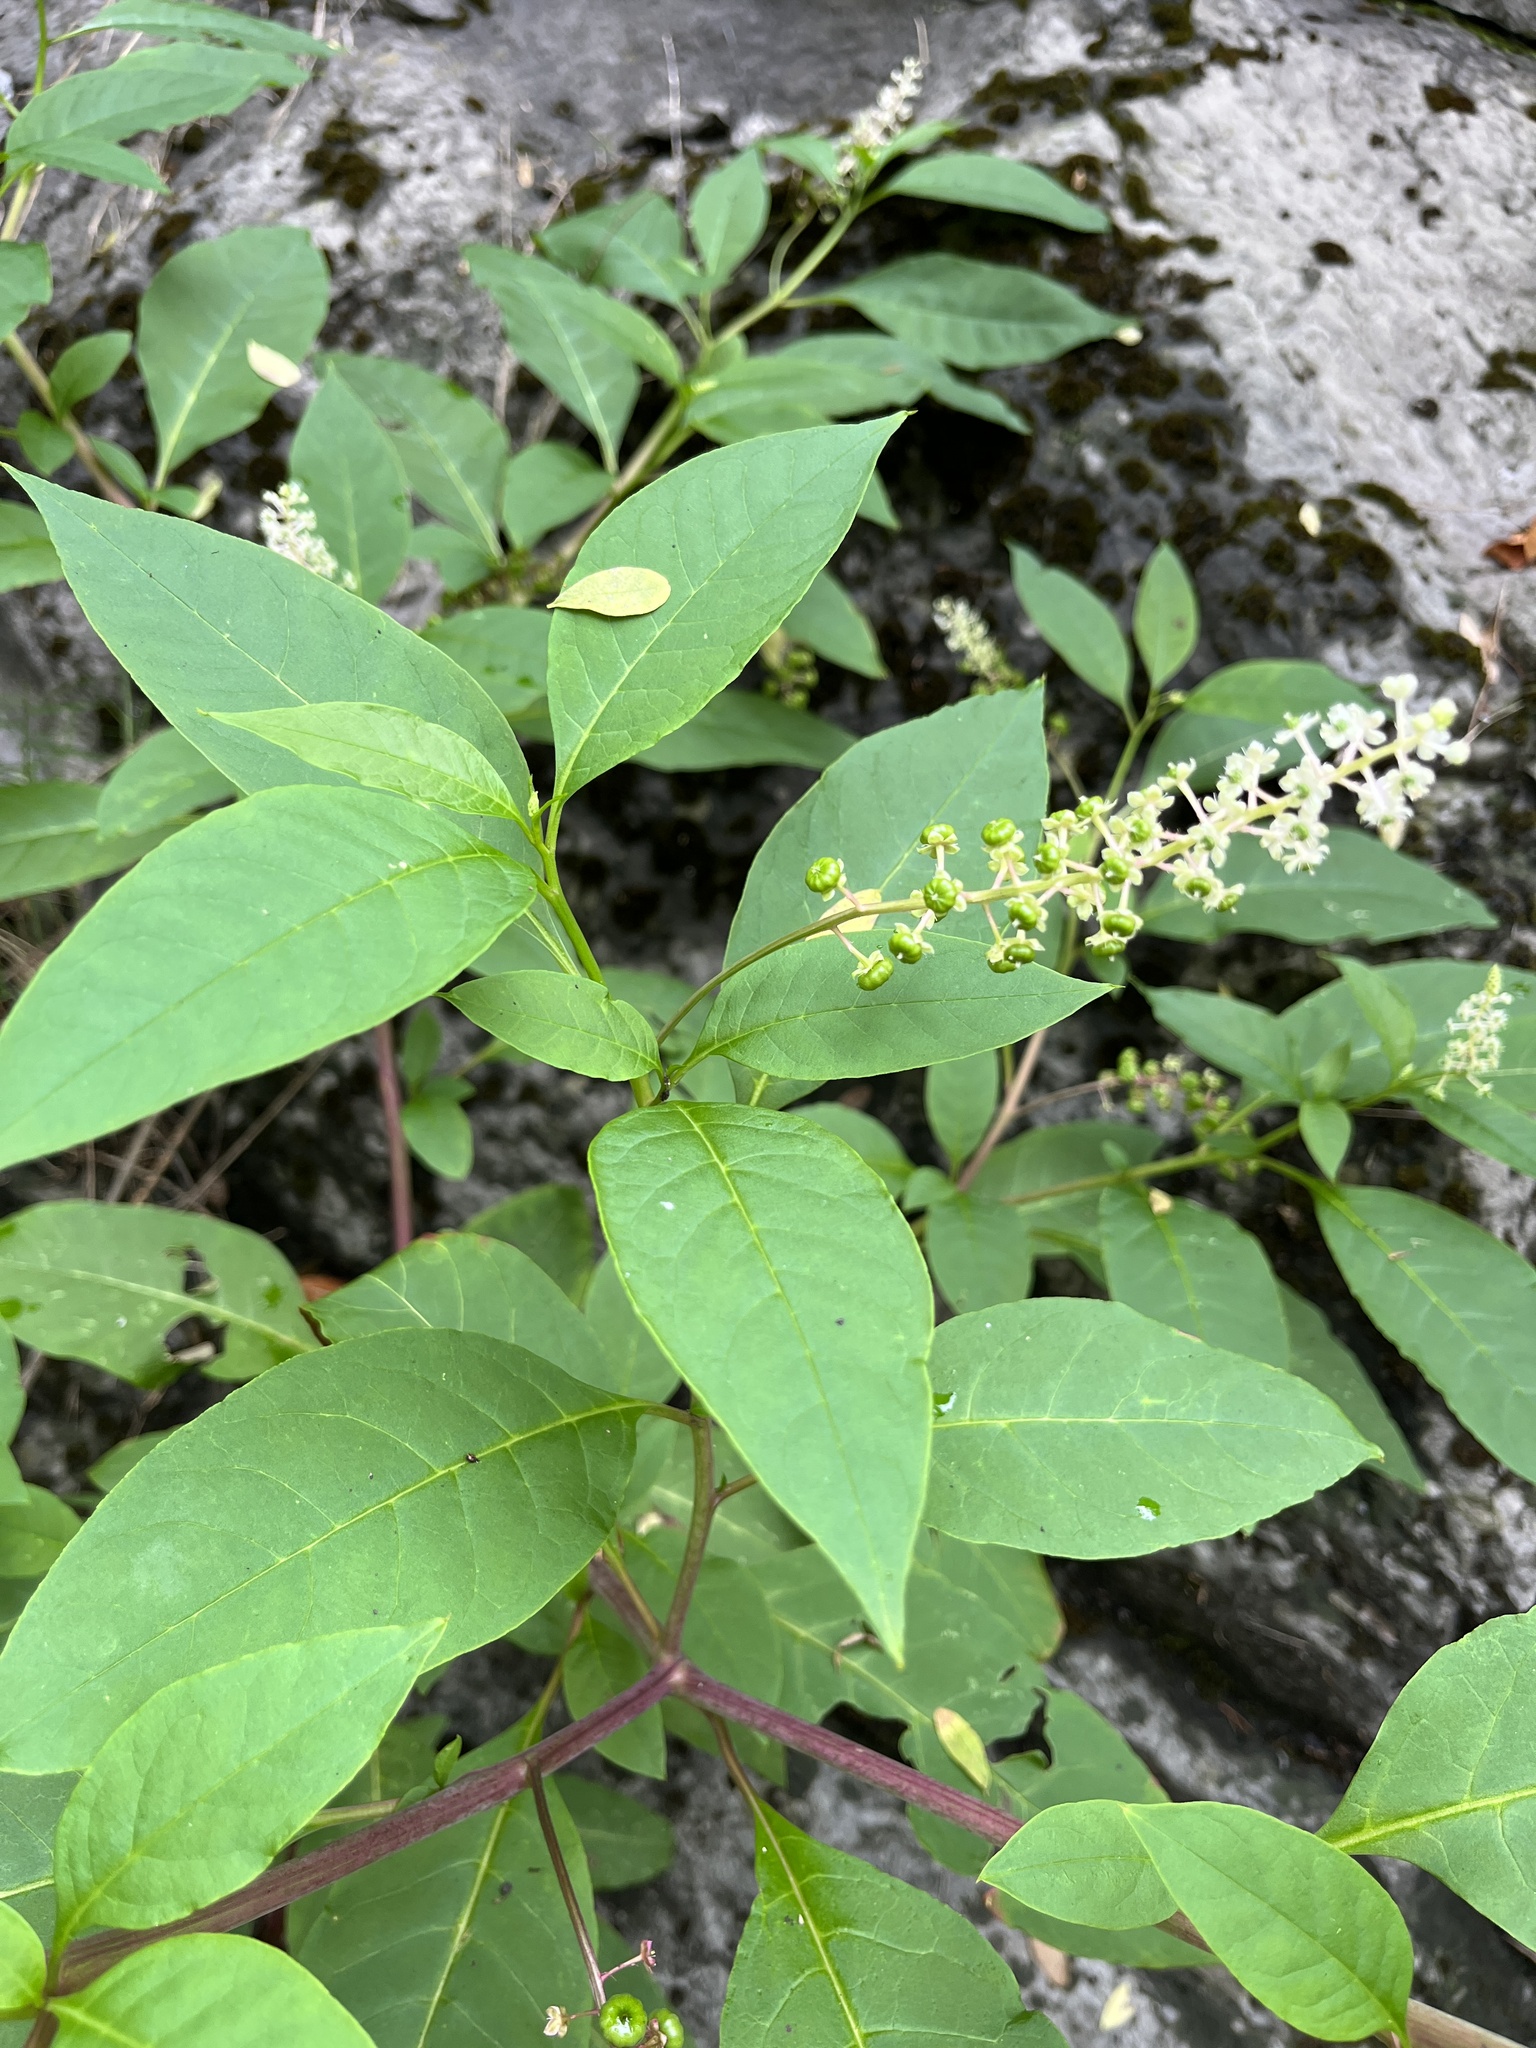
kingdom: Plantae
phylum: Tracheophyta
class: Magnoliopsida
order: Caryophyllales
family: Phytolaccaceae
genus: Phytolacca
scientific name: Phytolacca americana
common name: American pokeweed
